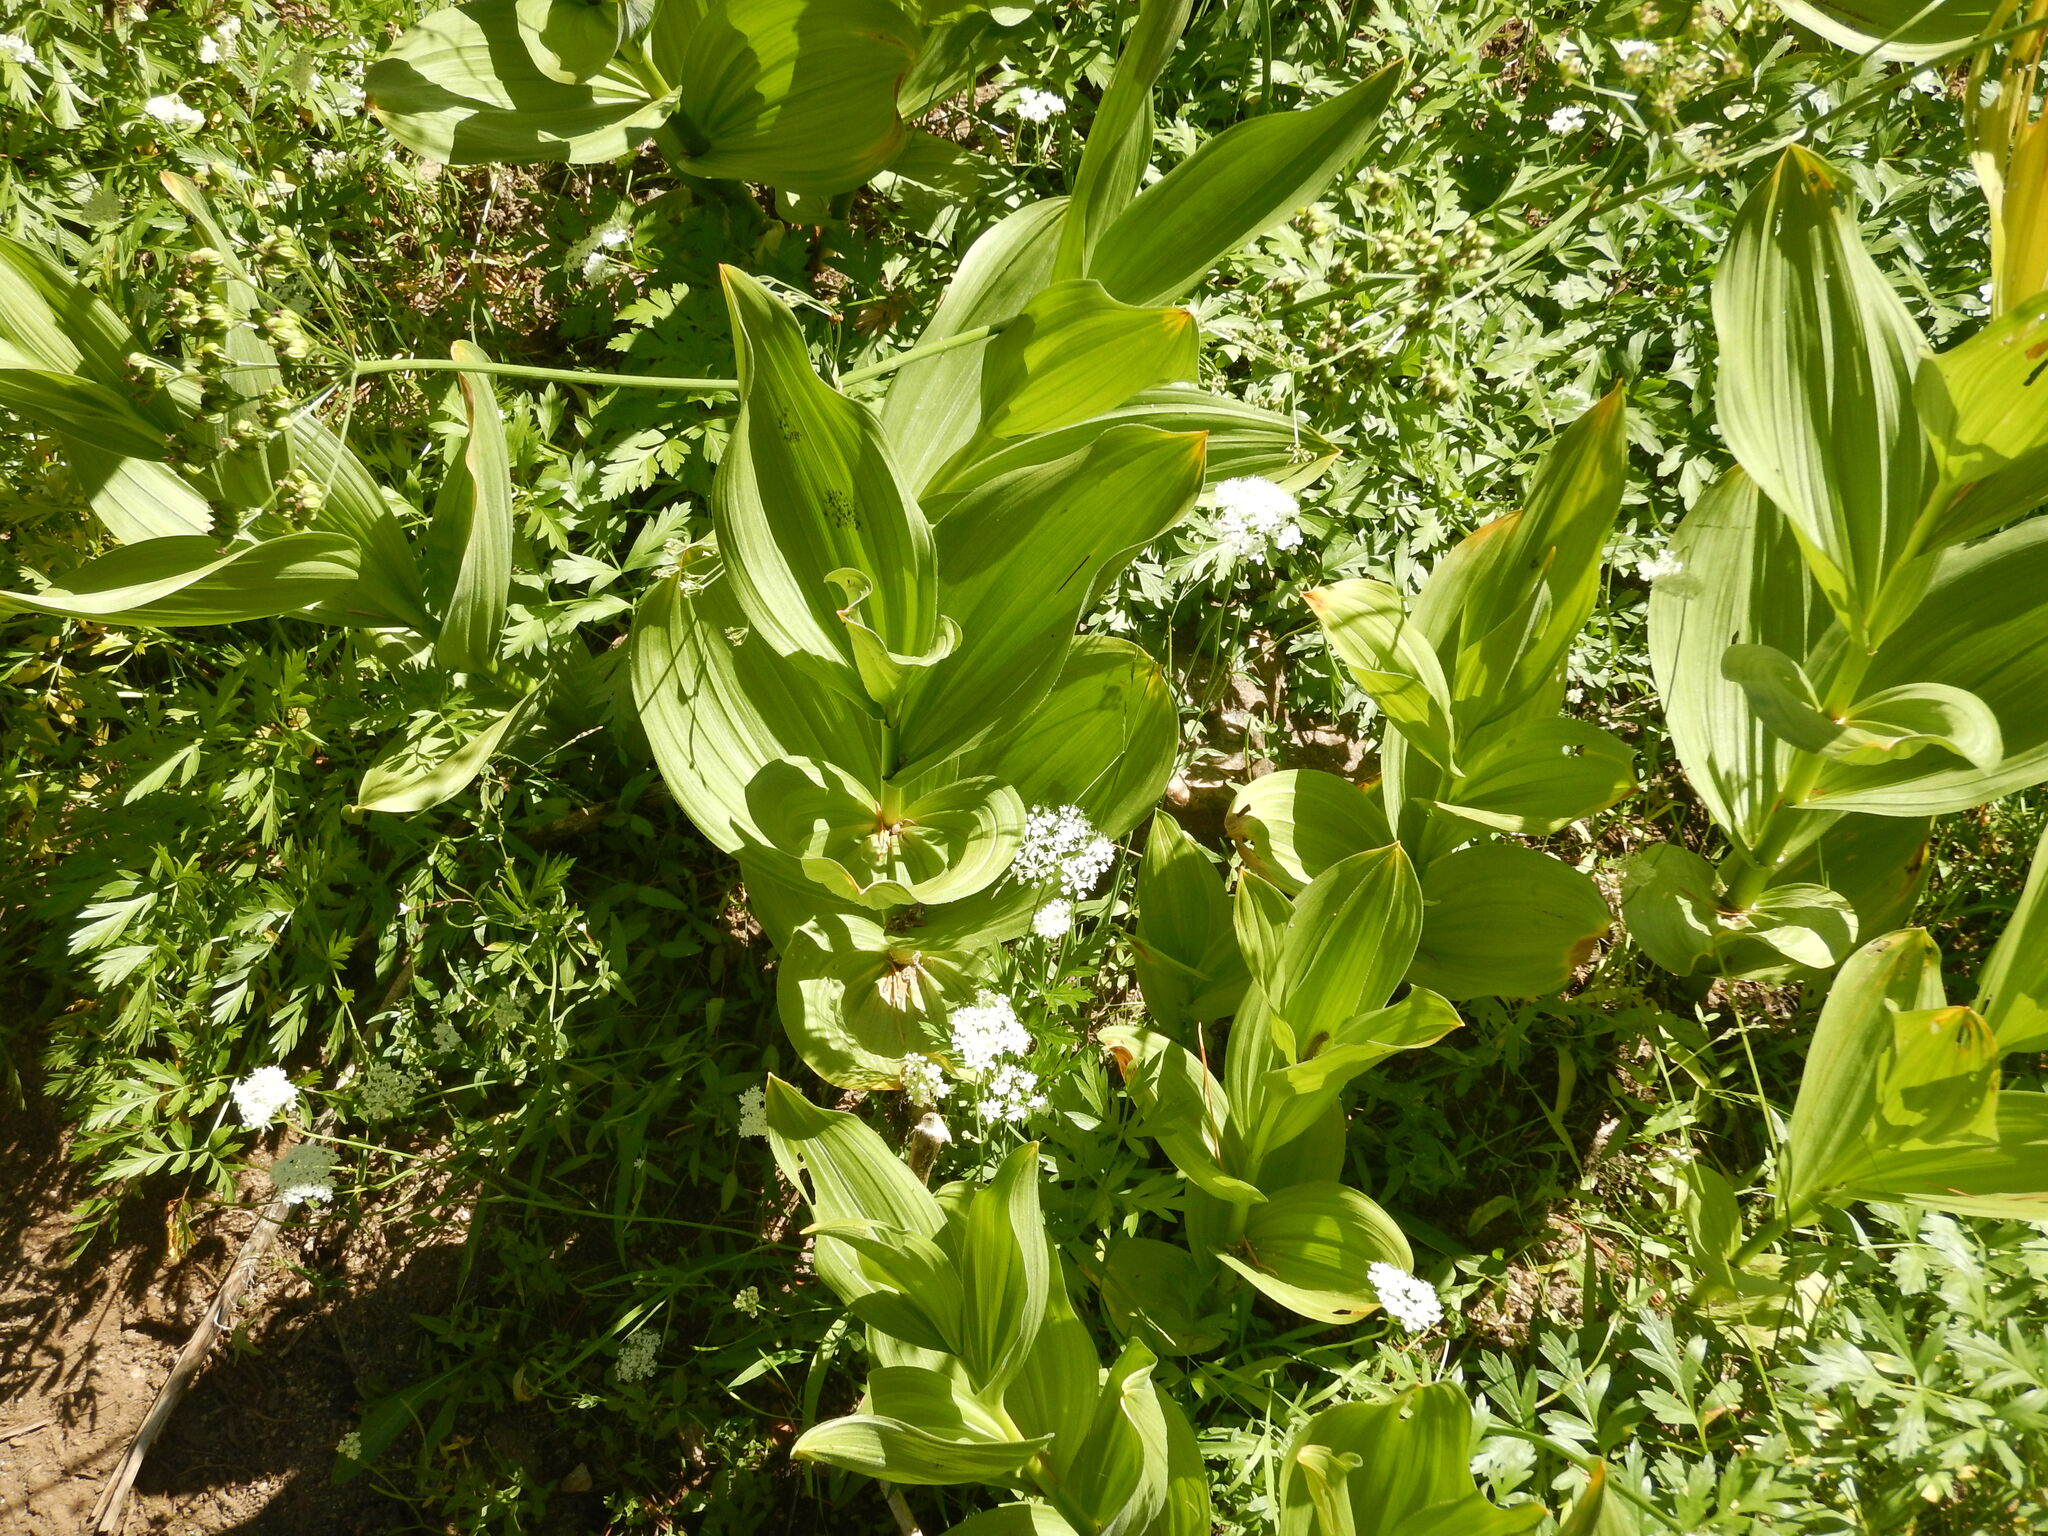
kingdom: Plantae
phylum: Tracheophyta
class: Liliopsida
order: Liliales
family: Melanthiaceae
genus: Veratrum
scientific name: Veratrum californicum
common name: California veratrum
